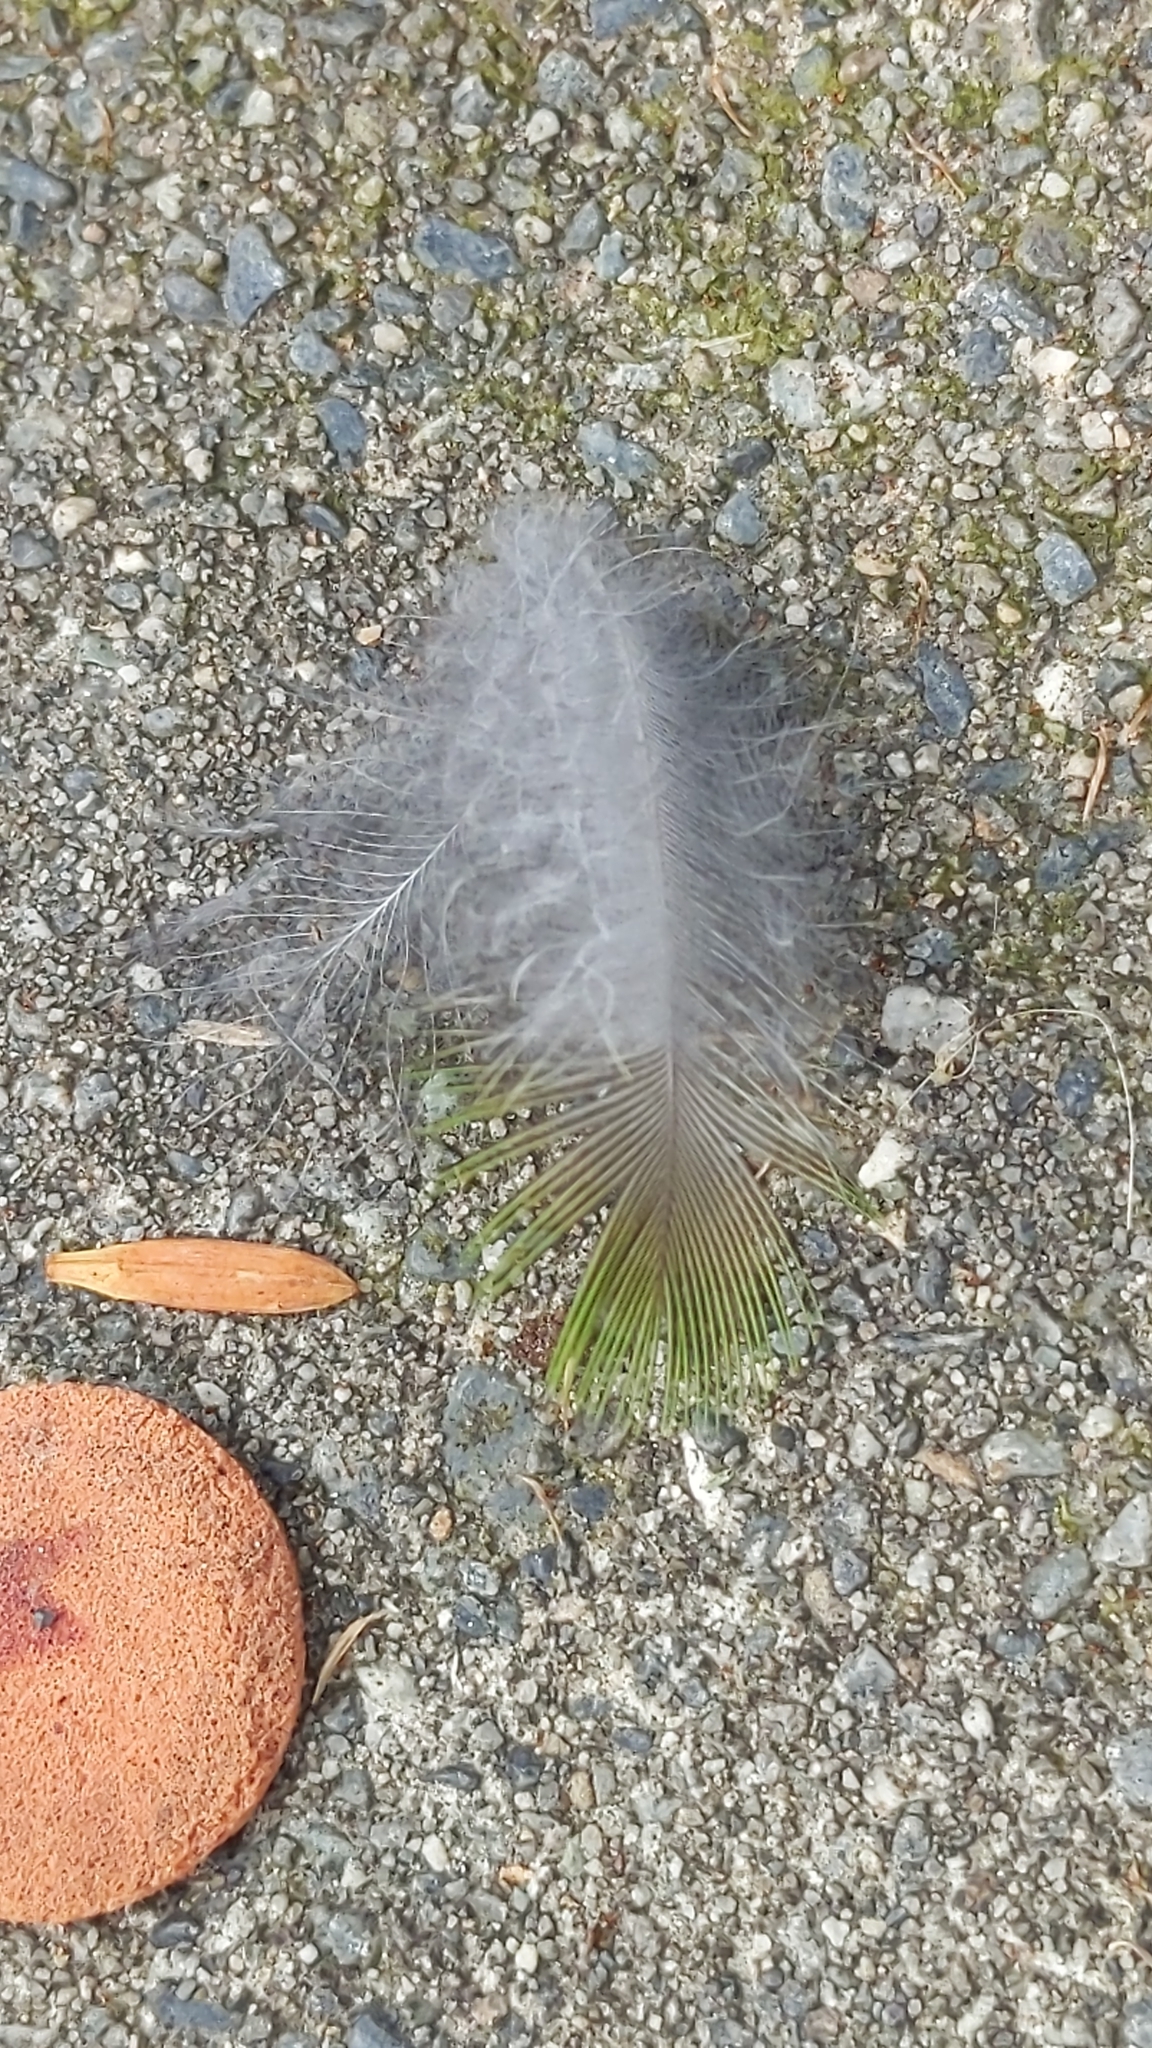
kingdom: Animalia
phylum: Chordata
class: Aves
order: Psittaciformes
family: Psittacidae
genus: Cyanoramphus
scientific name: Cyanoramphus novaezelandiae
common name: Red-fronted parakeet
